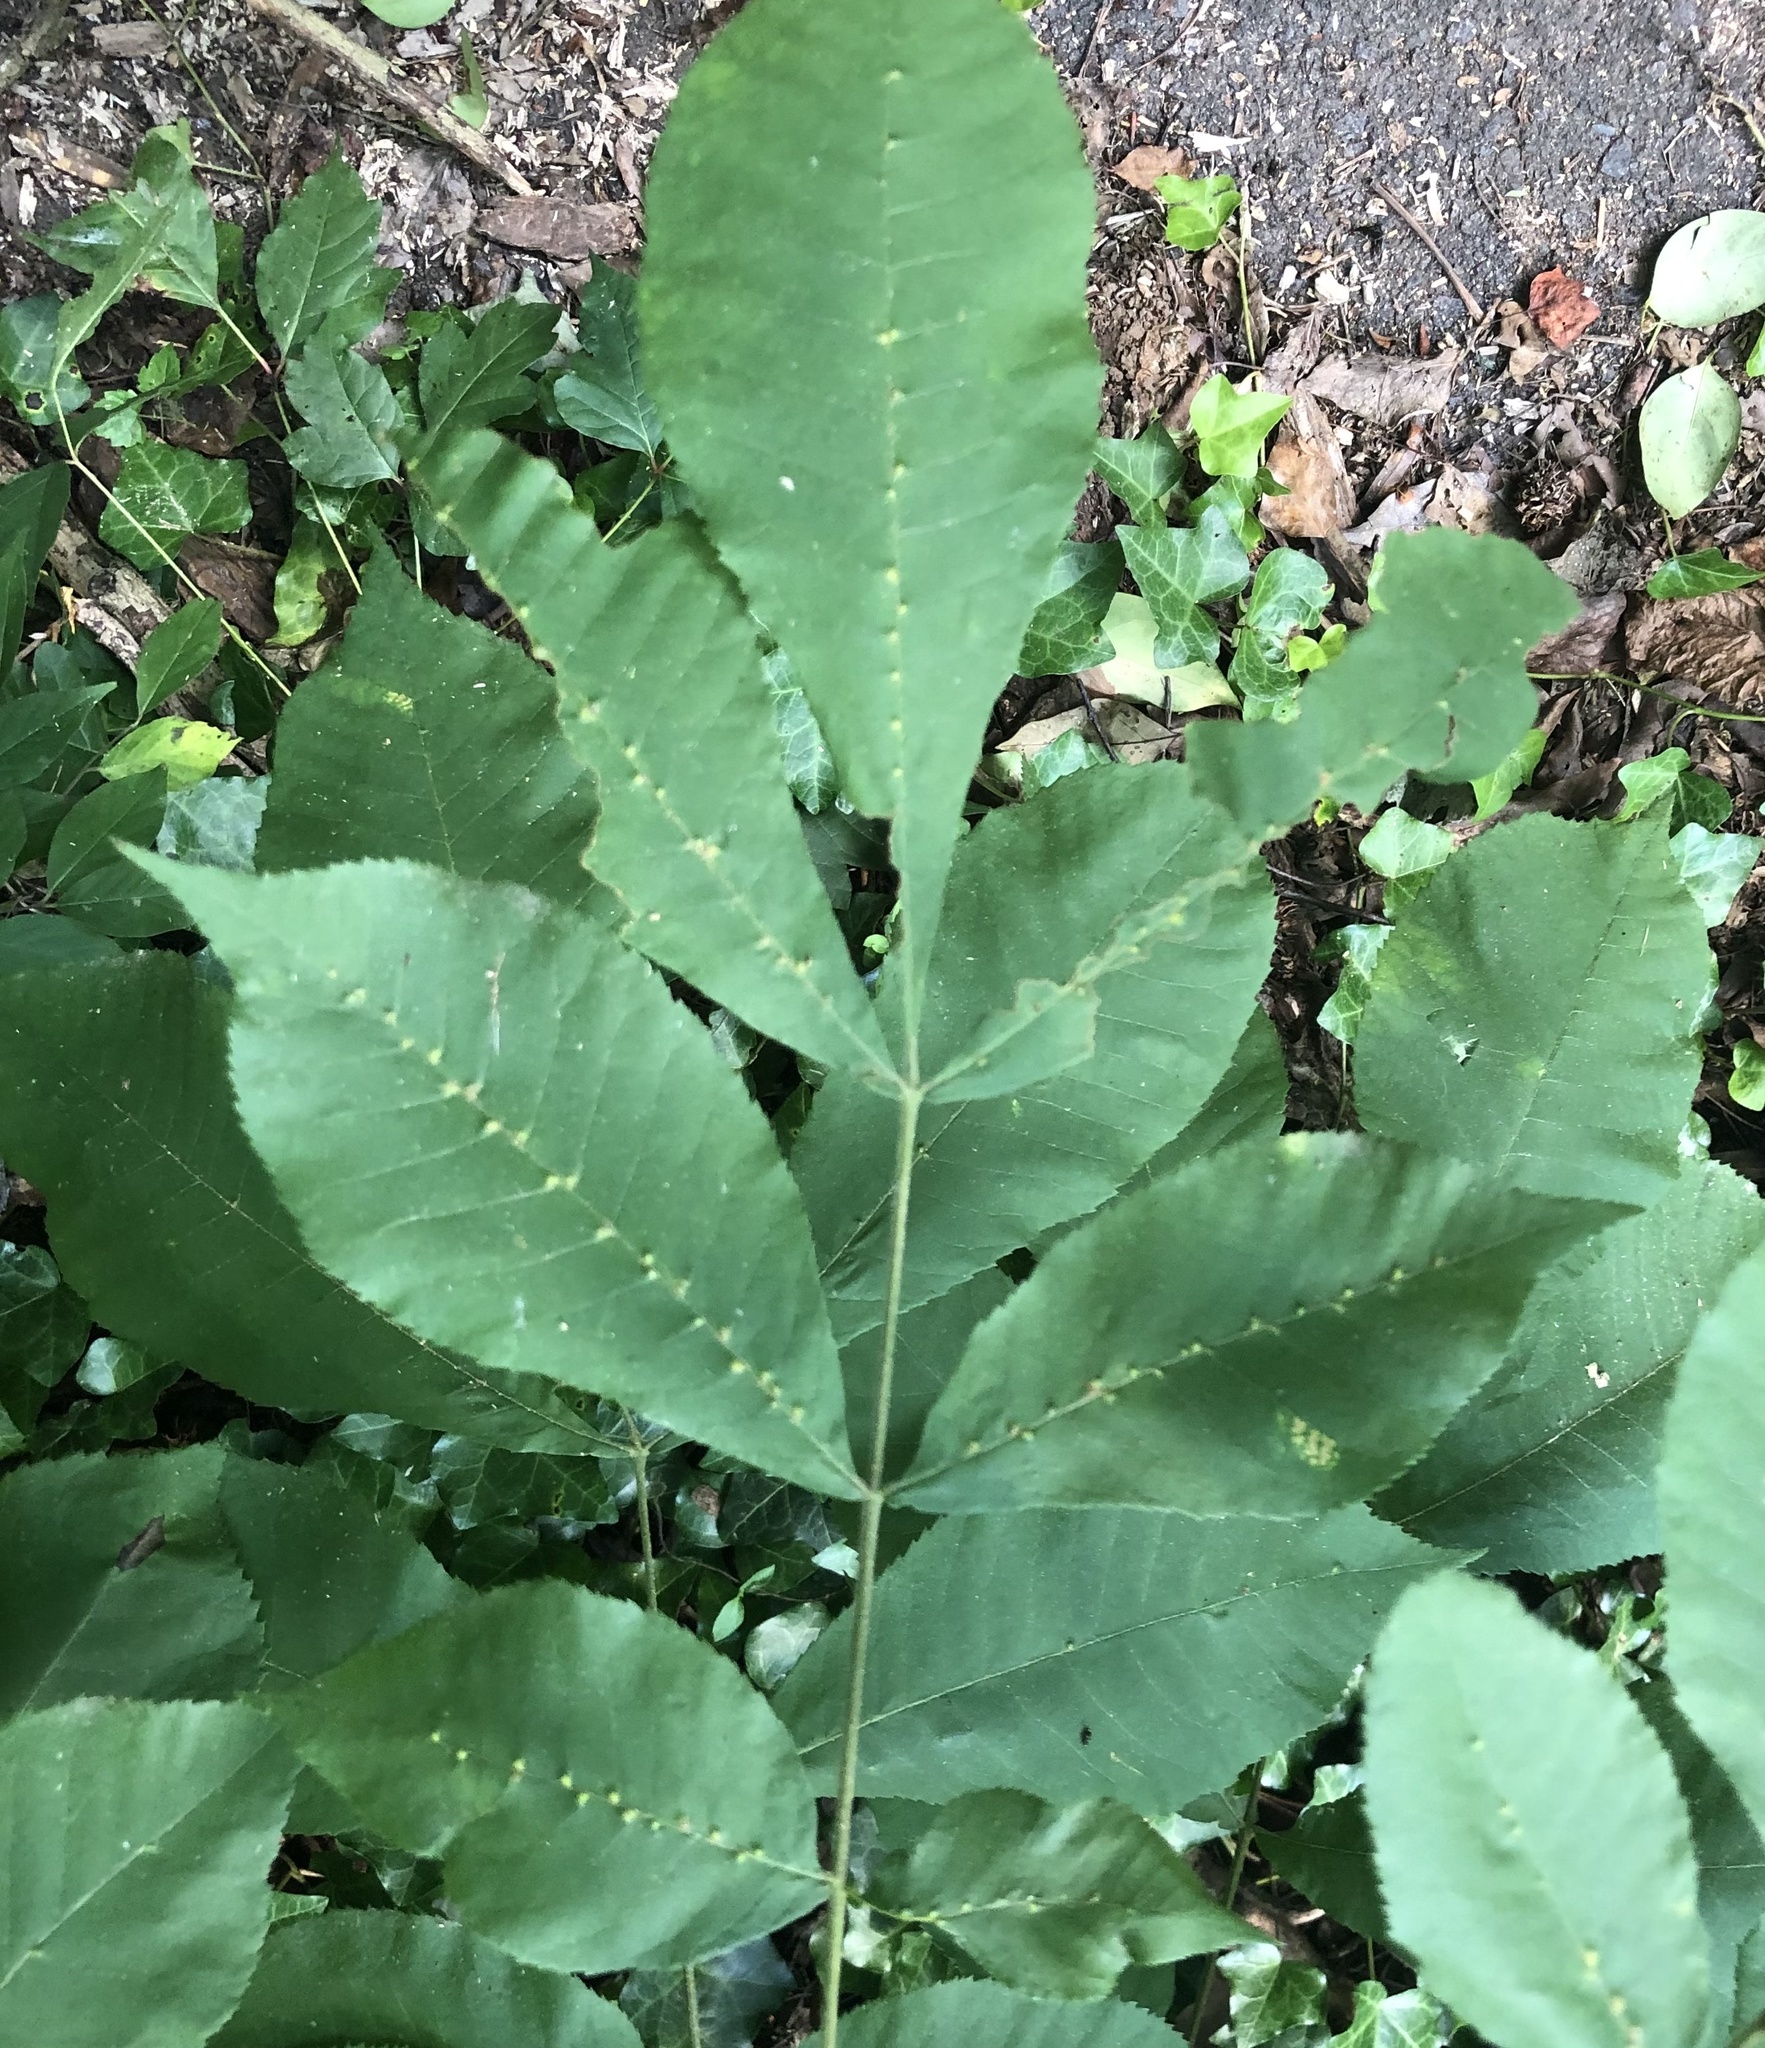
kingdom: Animalia
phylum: Arthropoda
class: Arachnida
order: Trombidiformes
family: Eriophyidae
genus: Aceria
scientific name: Aceria
